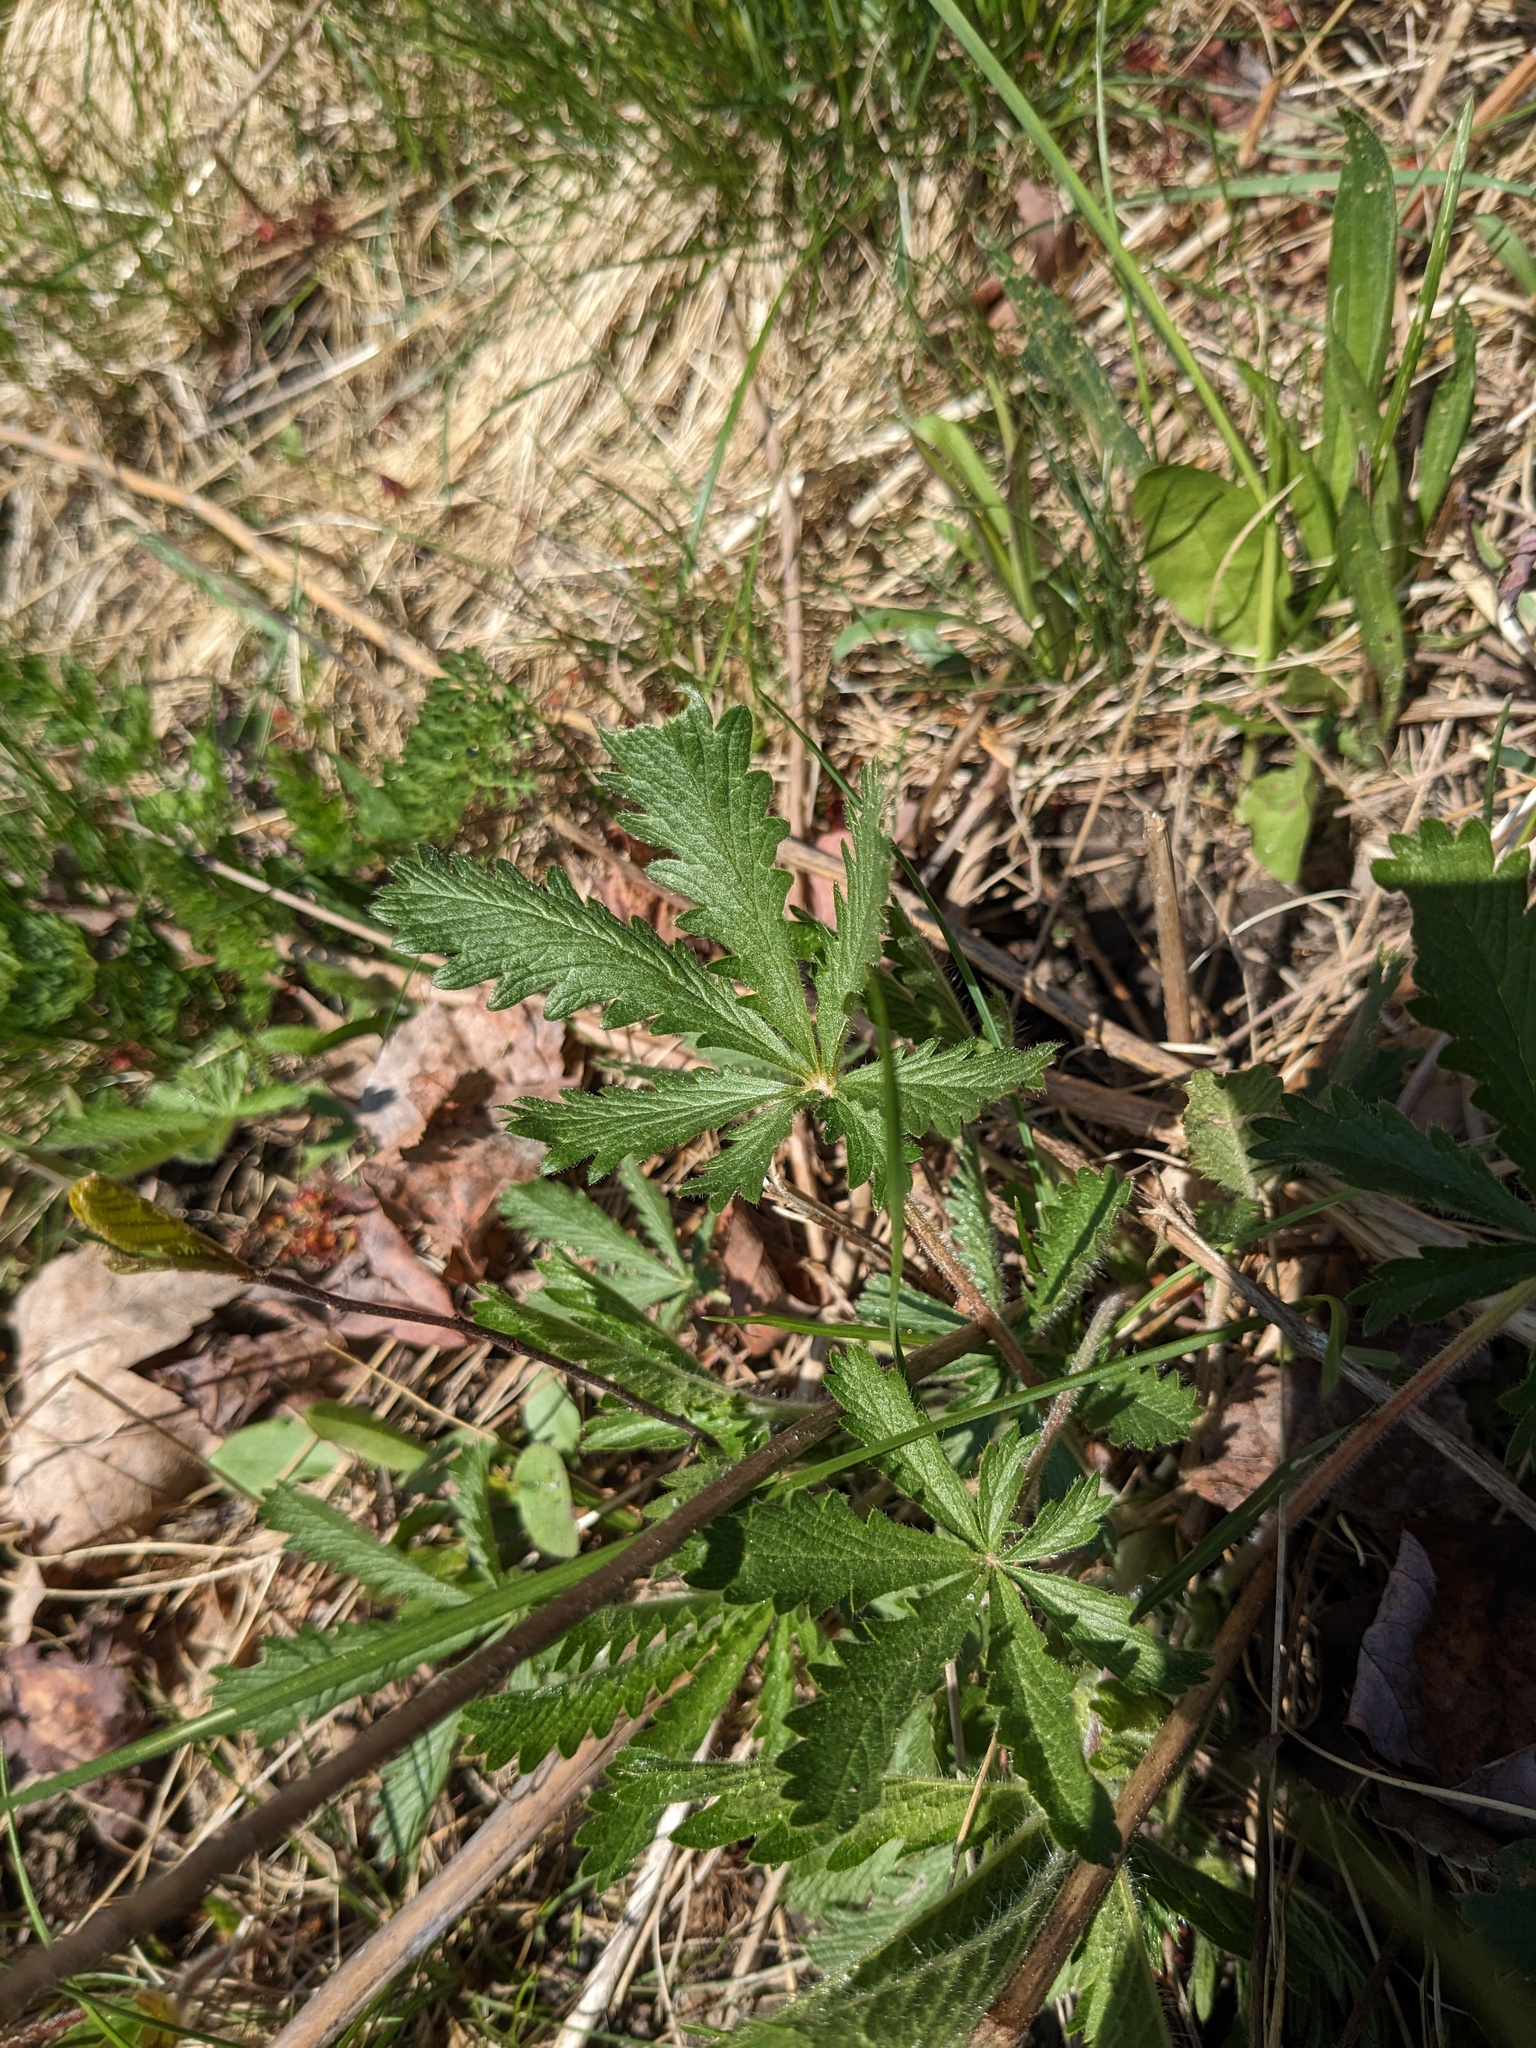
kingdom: Plantae
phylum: Tracheophyta
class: Magnoliopsida
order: Rosales
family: Rosaceae
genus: Potentilla
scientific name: Potentilla recta
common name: Sulphur cinquefoil
